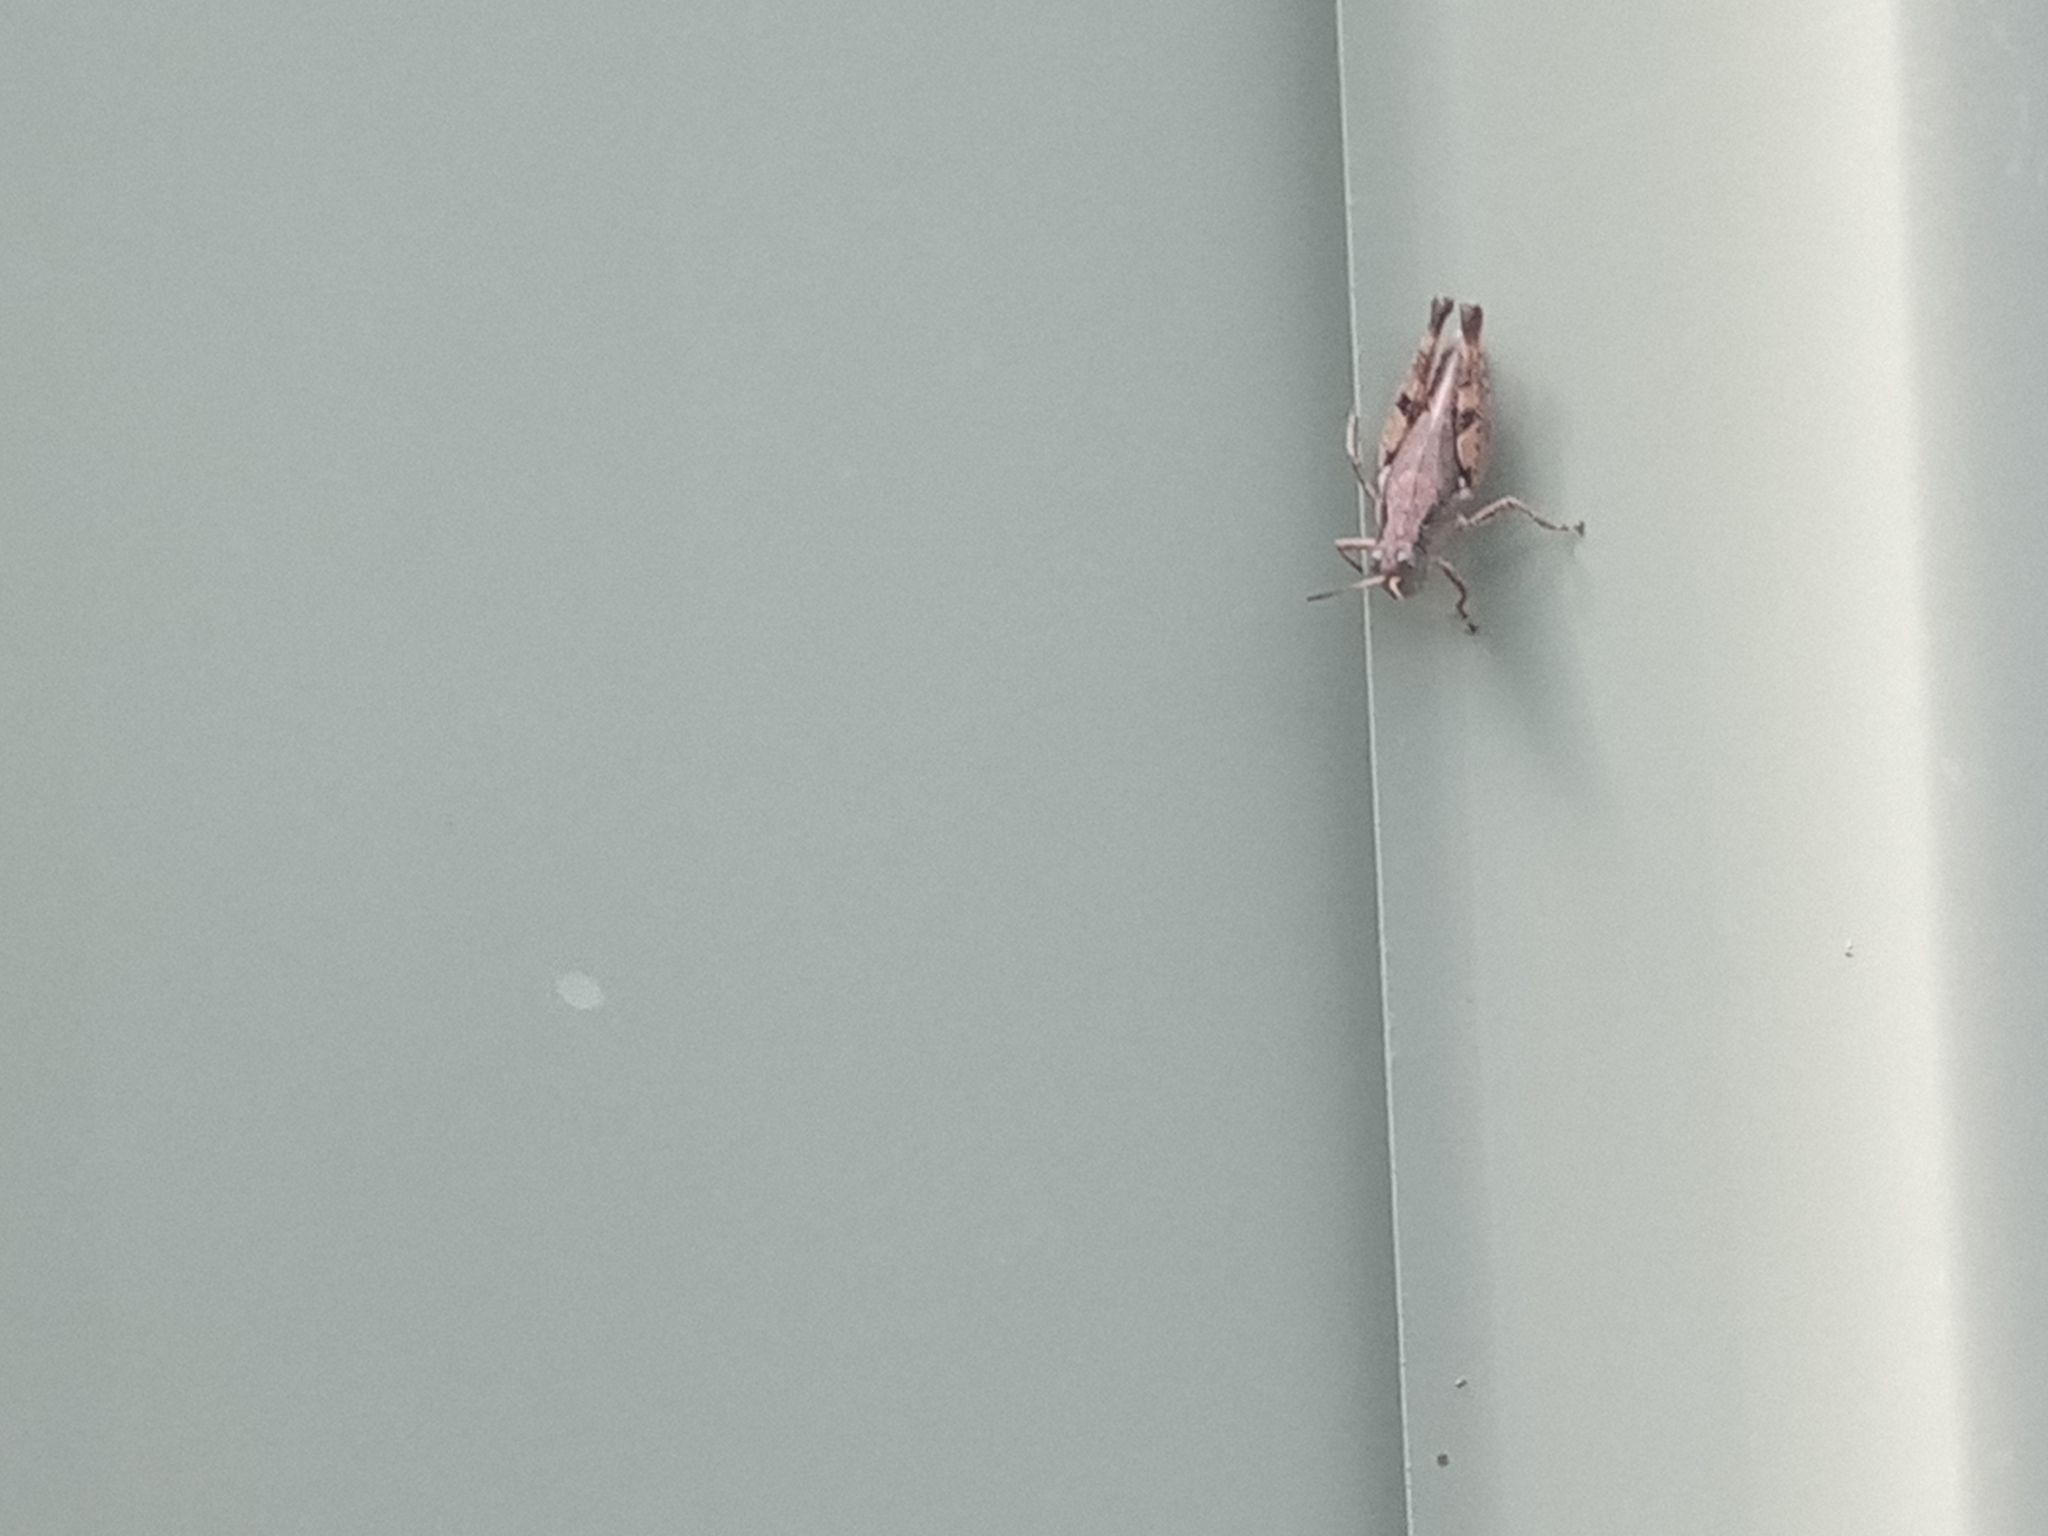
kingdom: Animalia
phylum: Arthropoda
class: Insecta
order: Orthoptera
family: Acrididae
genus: Phaulacridium
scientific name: Phaulacridium vittatum
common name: Wingless grasshopper
